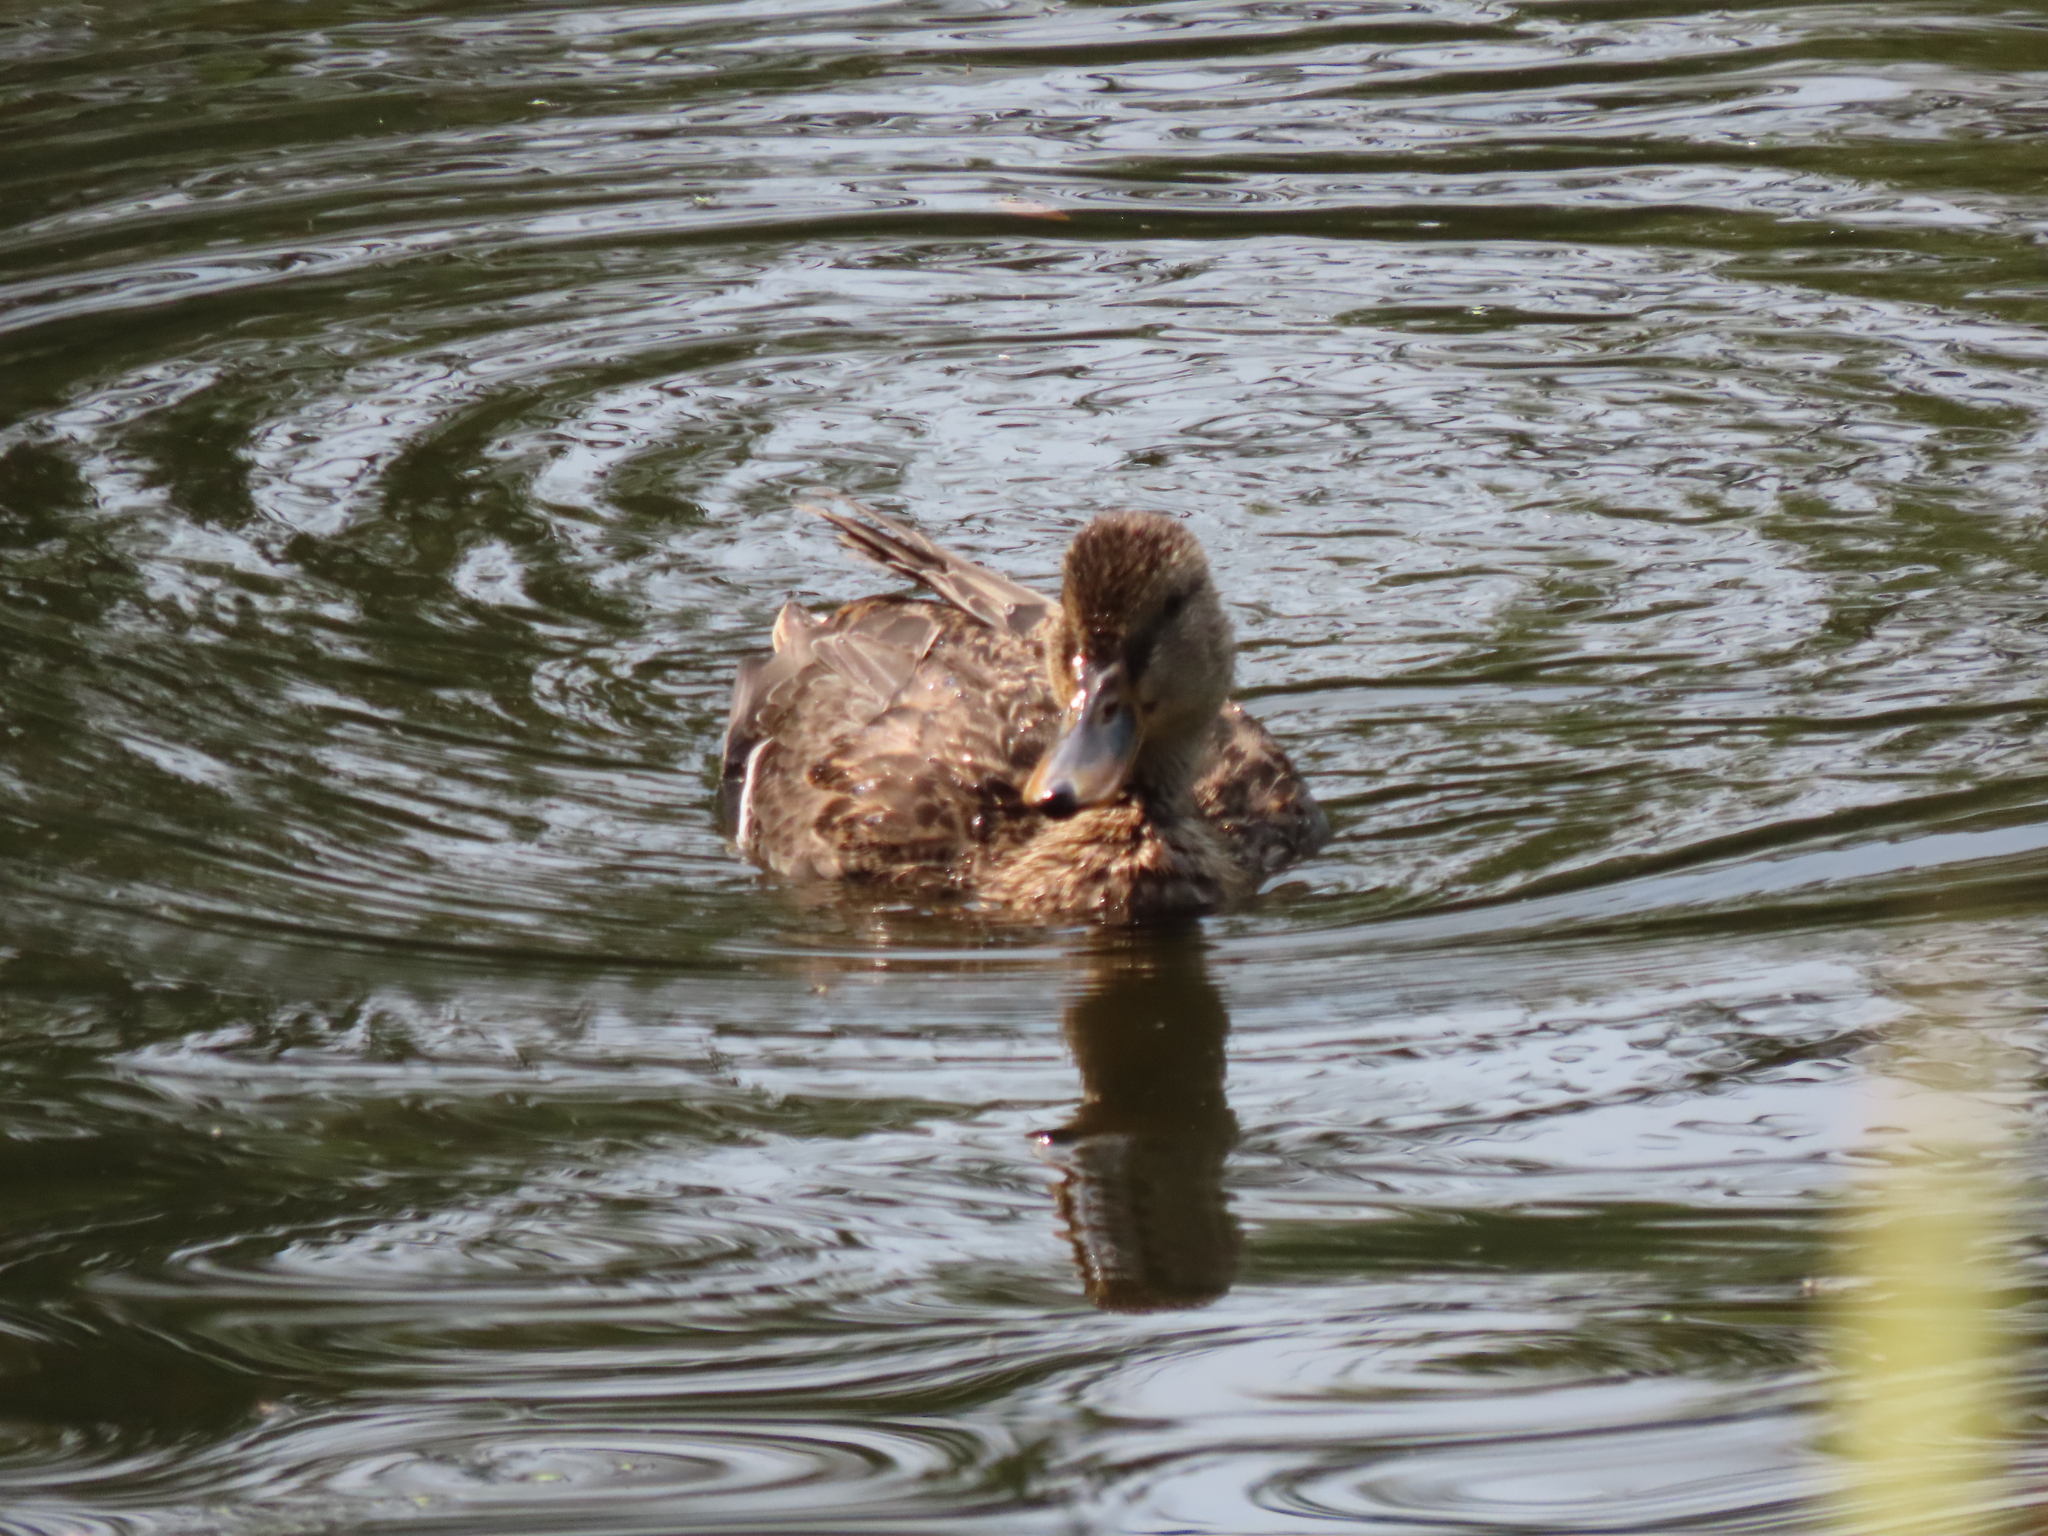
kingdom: Animalia
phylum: Chordata
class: Aves
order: Anseriformes
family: Anatidae
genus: Anas
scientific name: Anas platyrhynchos
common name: Mallard
